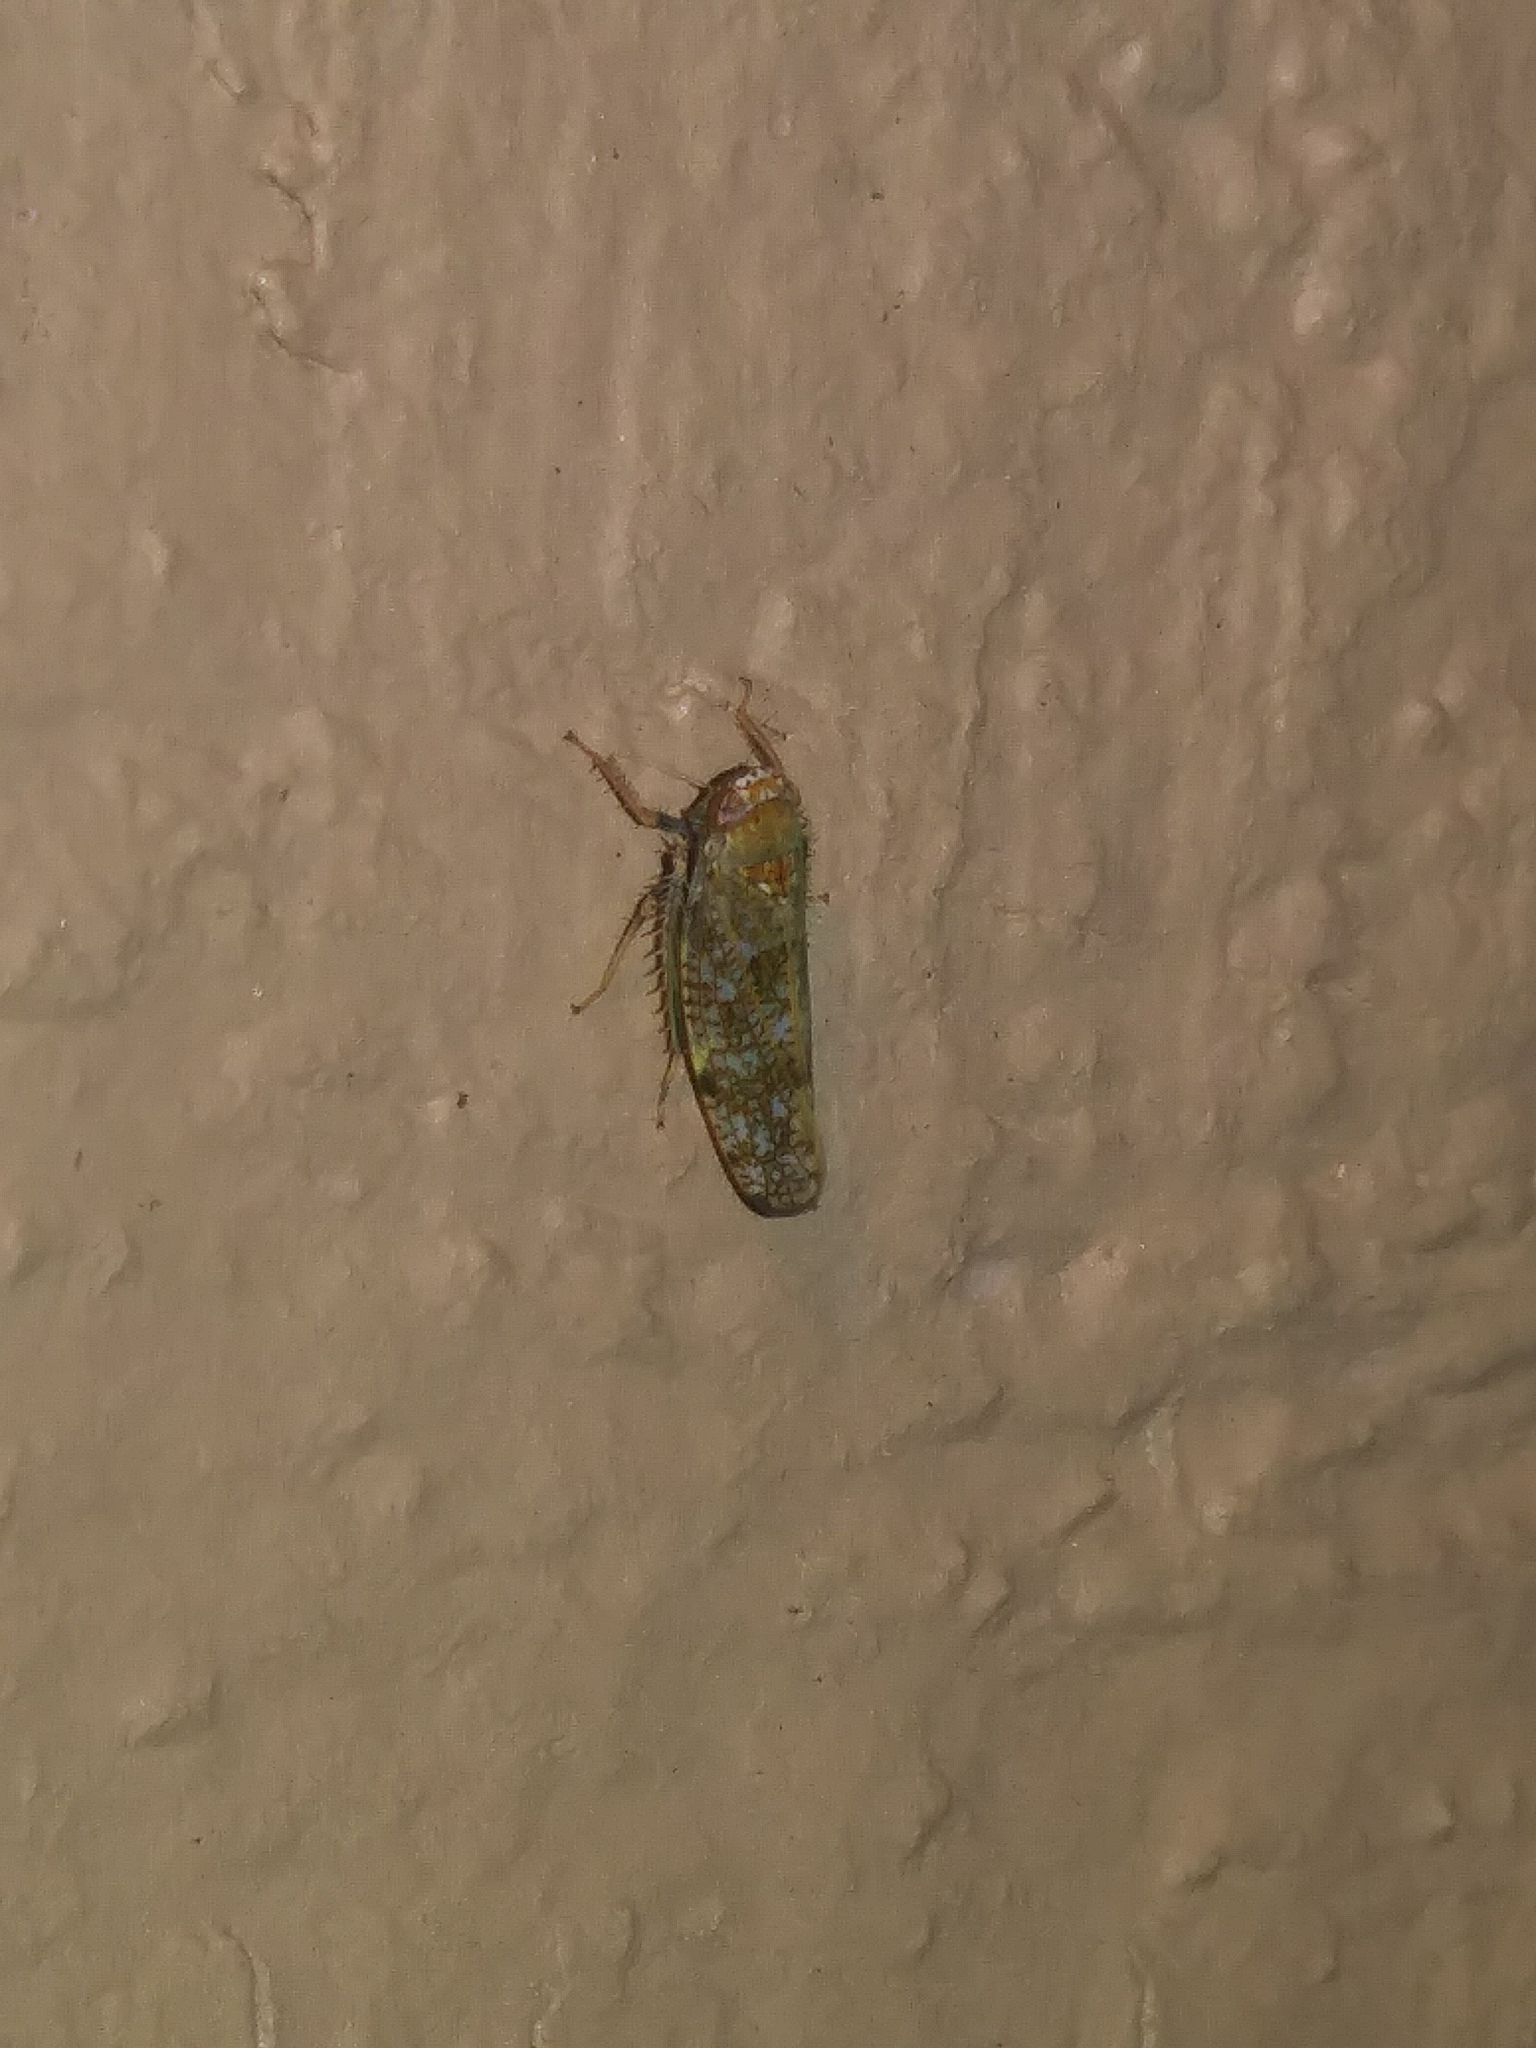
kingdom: Animalia
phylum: Arthropoda
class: Insecta
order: Hemiptera
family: Cicadellidae
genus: Orientus
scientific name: Orientus ishidae
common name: Japanese leafhopper
